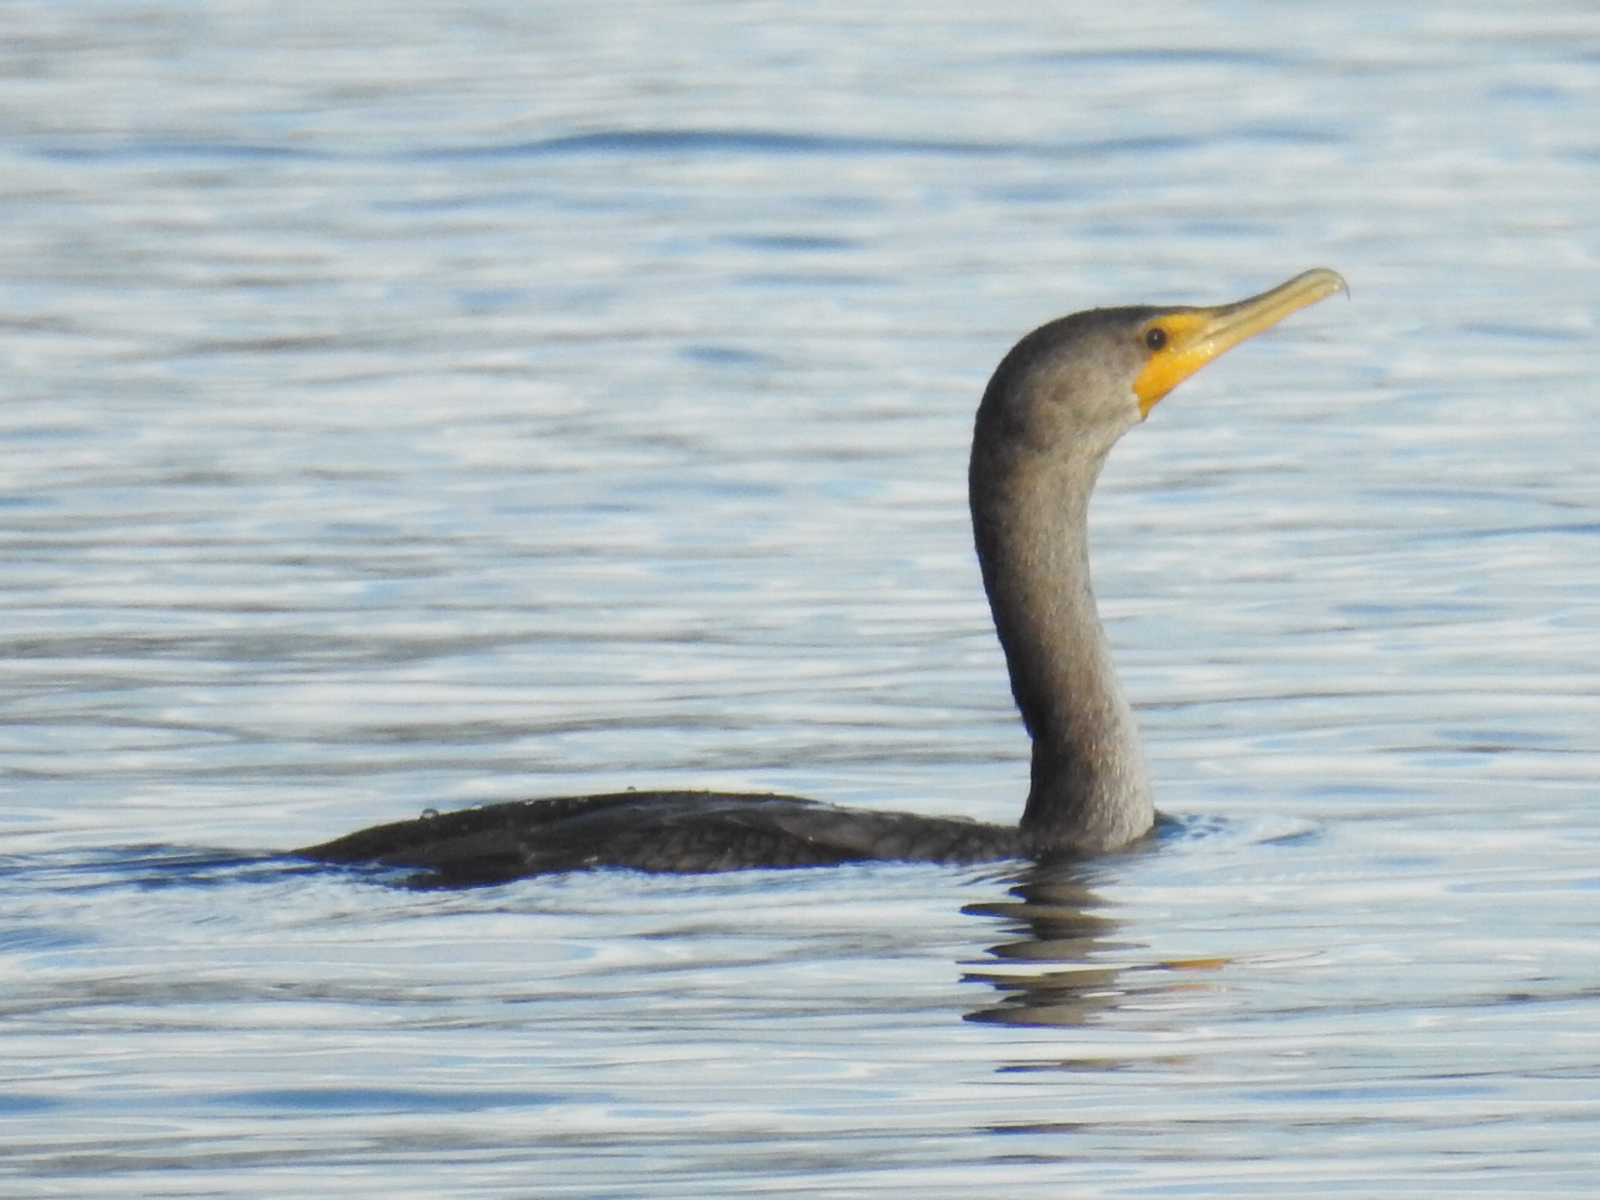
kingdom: Animalia
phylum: Chordata
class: Aves
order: Suliformes
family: Phalacrocoracidae
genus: Phalacrocorax
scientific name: Phalacrocorax auritus
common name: Double-crested cormorant
